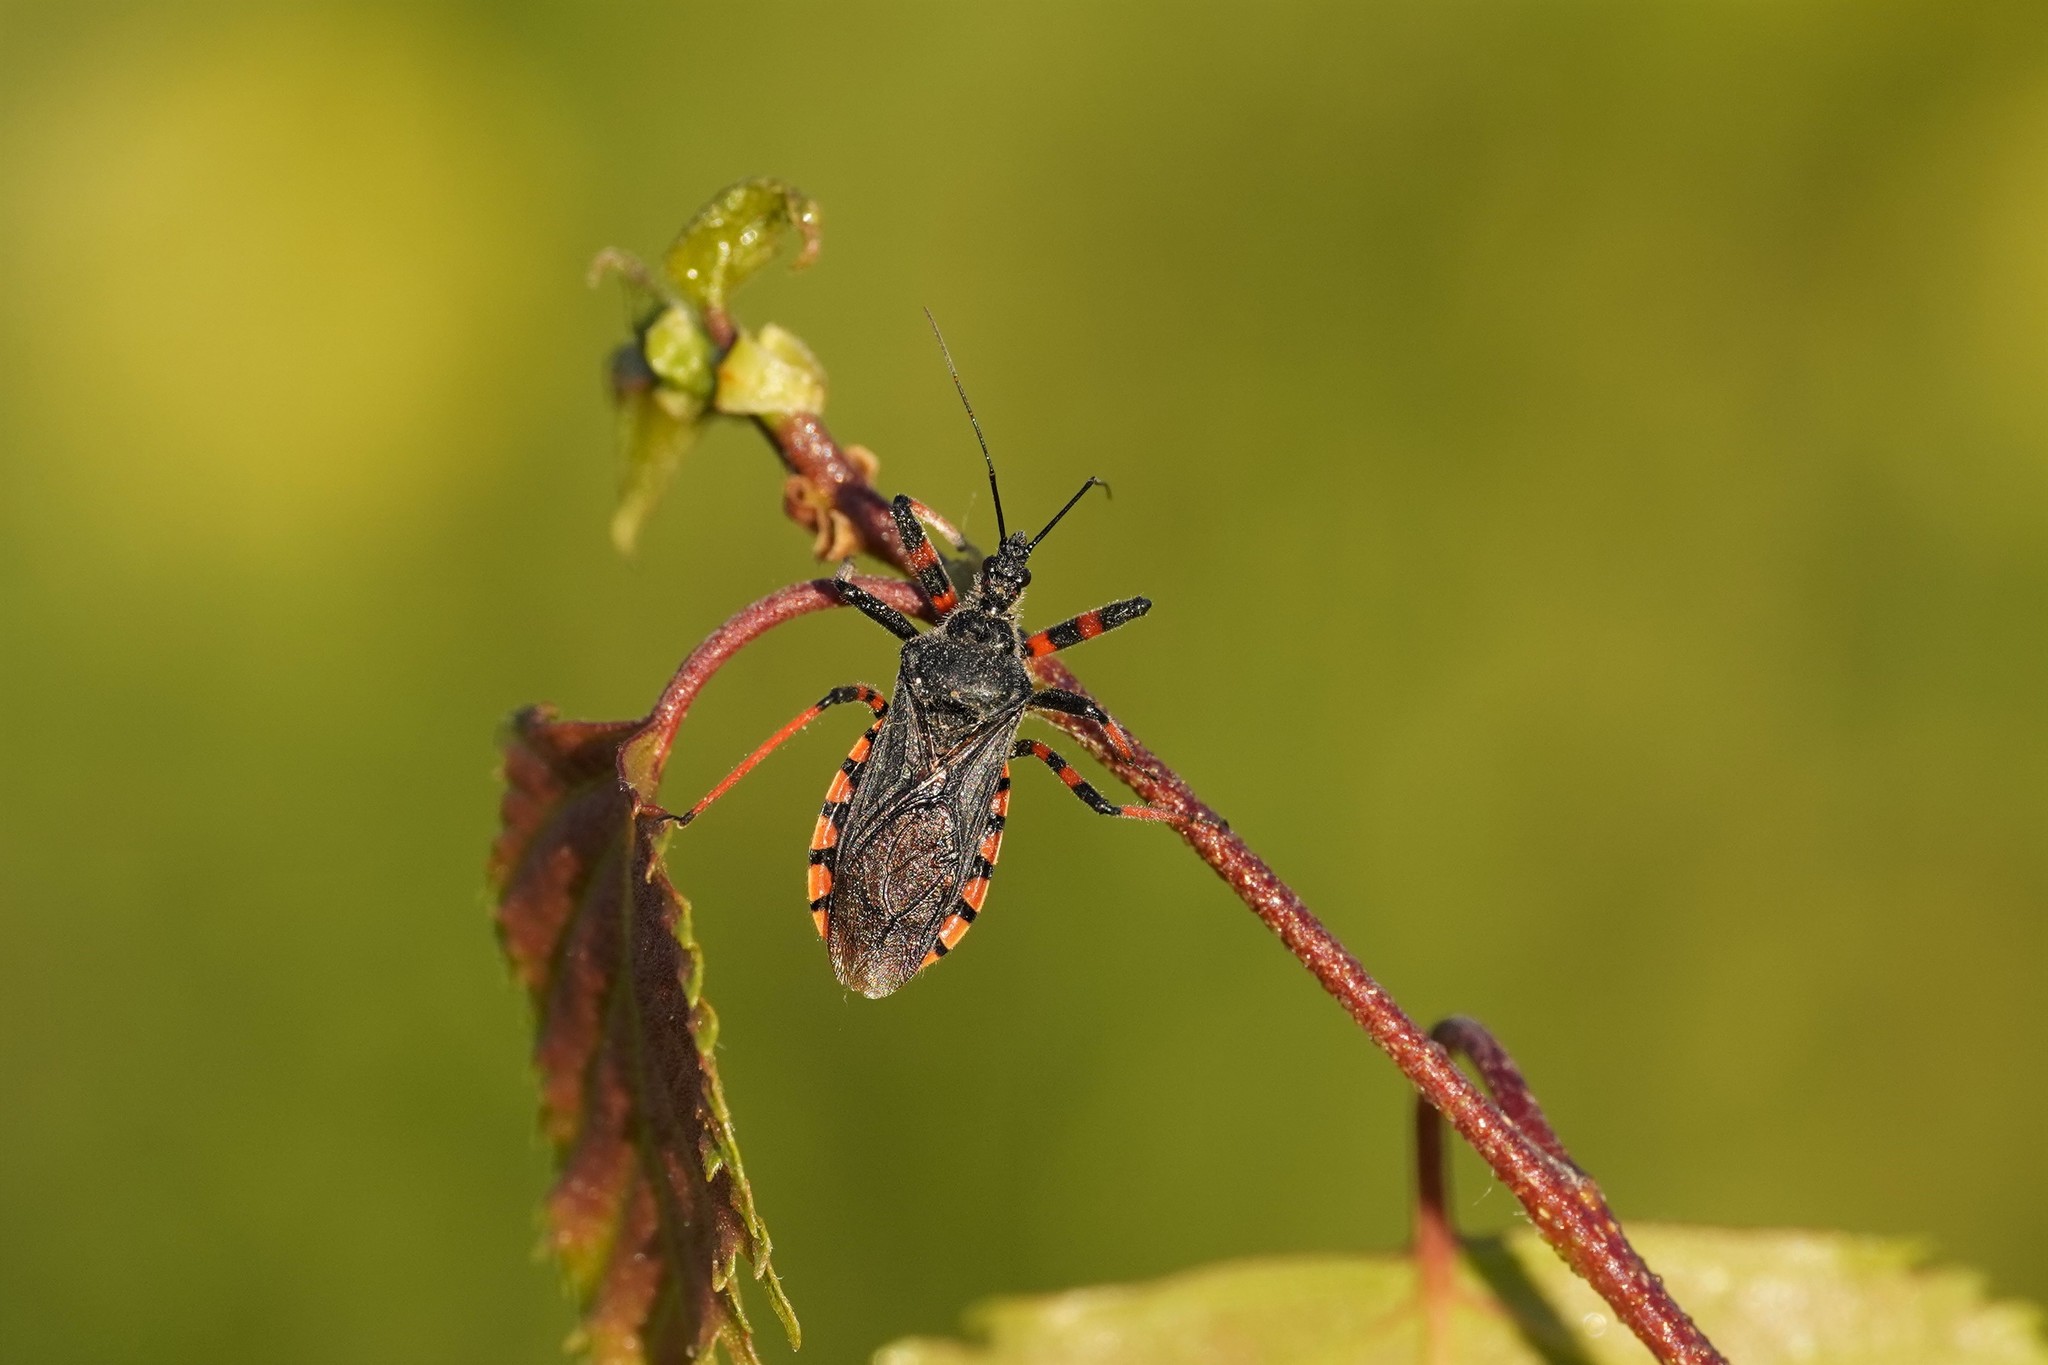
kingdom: Animalia
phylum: Arthropoda
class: Insecta
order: Hemiptera
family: Reduviidae
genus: Rhynocoris
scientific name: Rhynocoris annulatus
